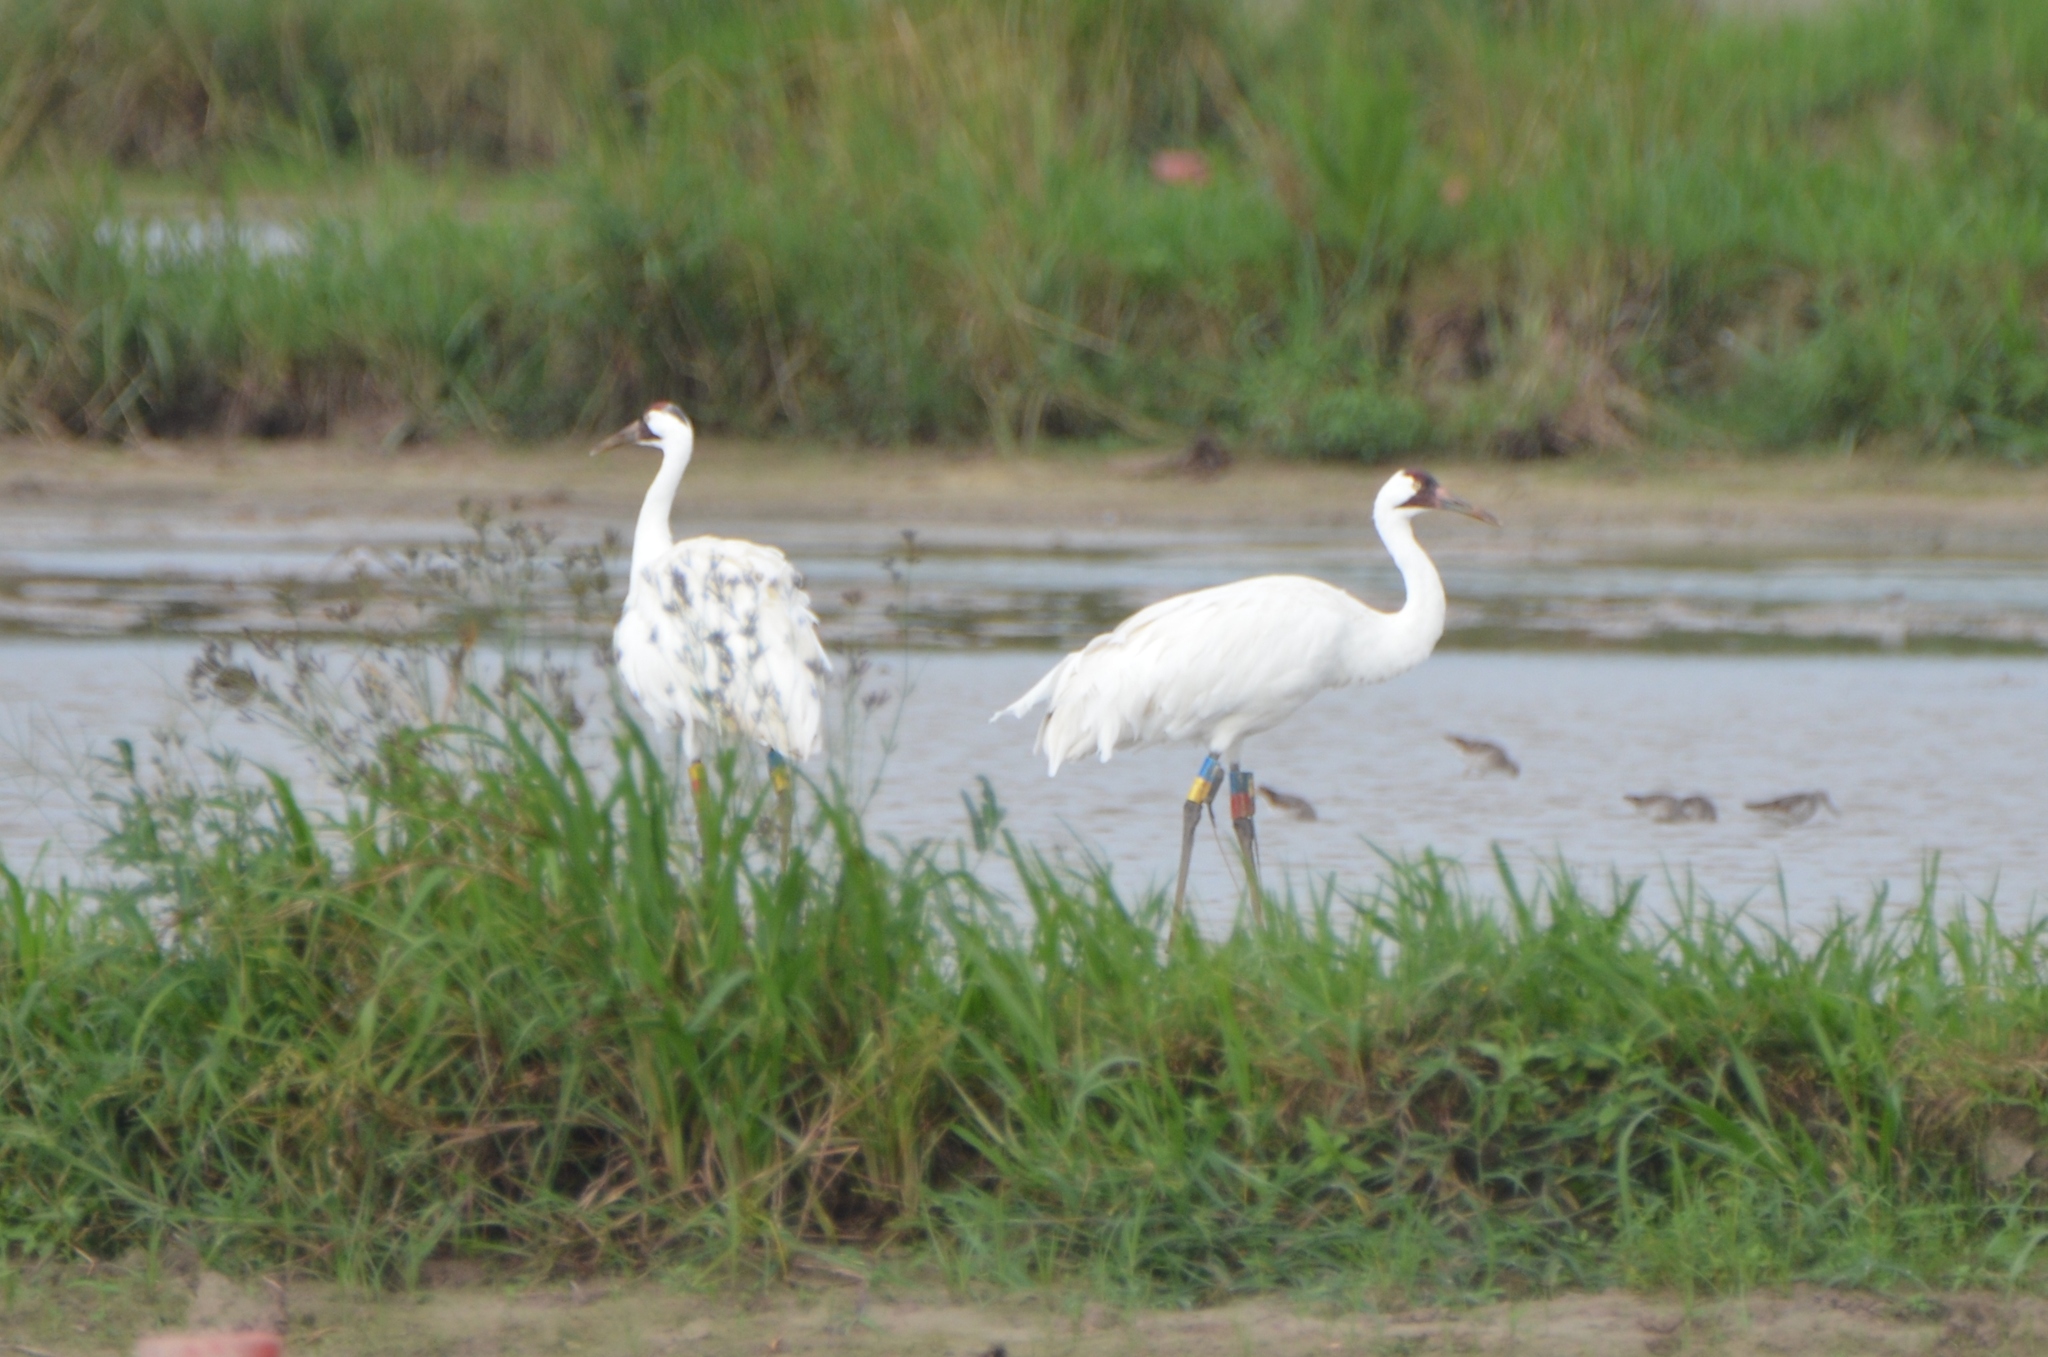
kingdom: Animalia
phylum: Chordata
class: Aves
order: Gruiformes
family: Gruidae
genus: Grus
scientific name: Grus americana
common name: Whooping crane
